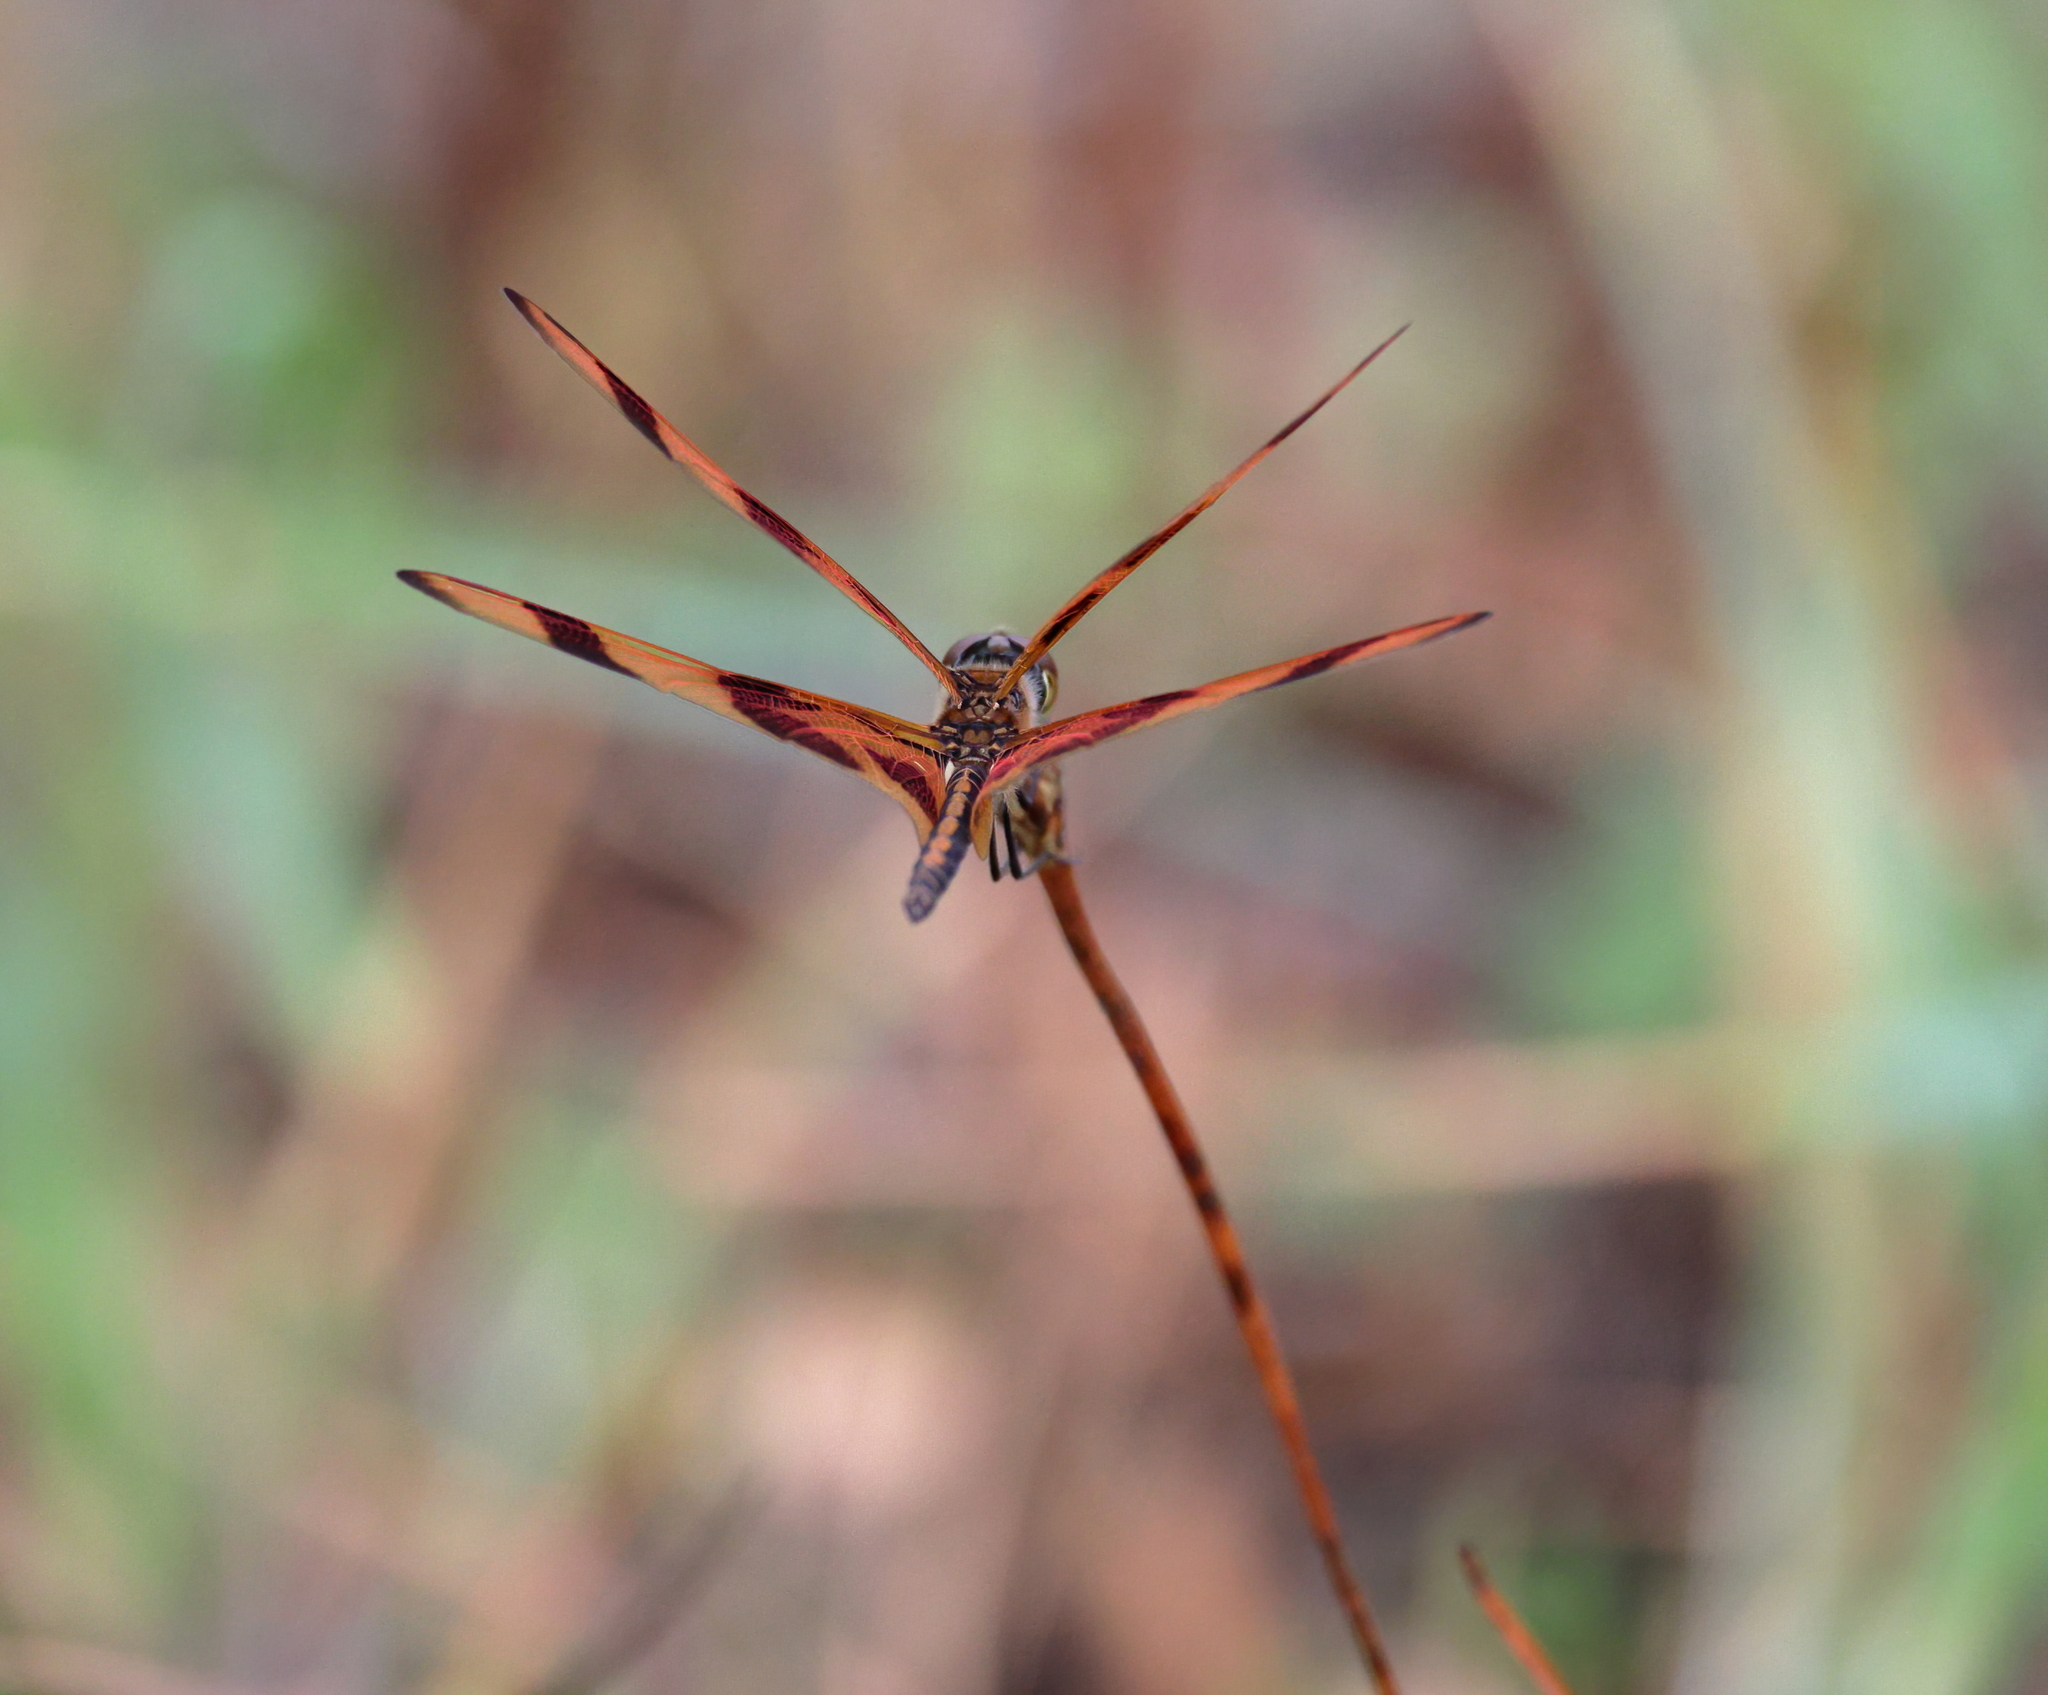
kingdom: Animalia
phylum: Arthropoda
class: Insecta
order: Odonata
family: Libellulidae
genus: Celithemis
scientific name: Celithemis eponina
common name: Halloween pennant
